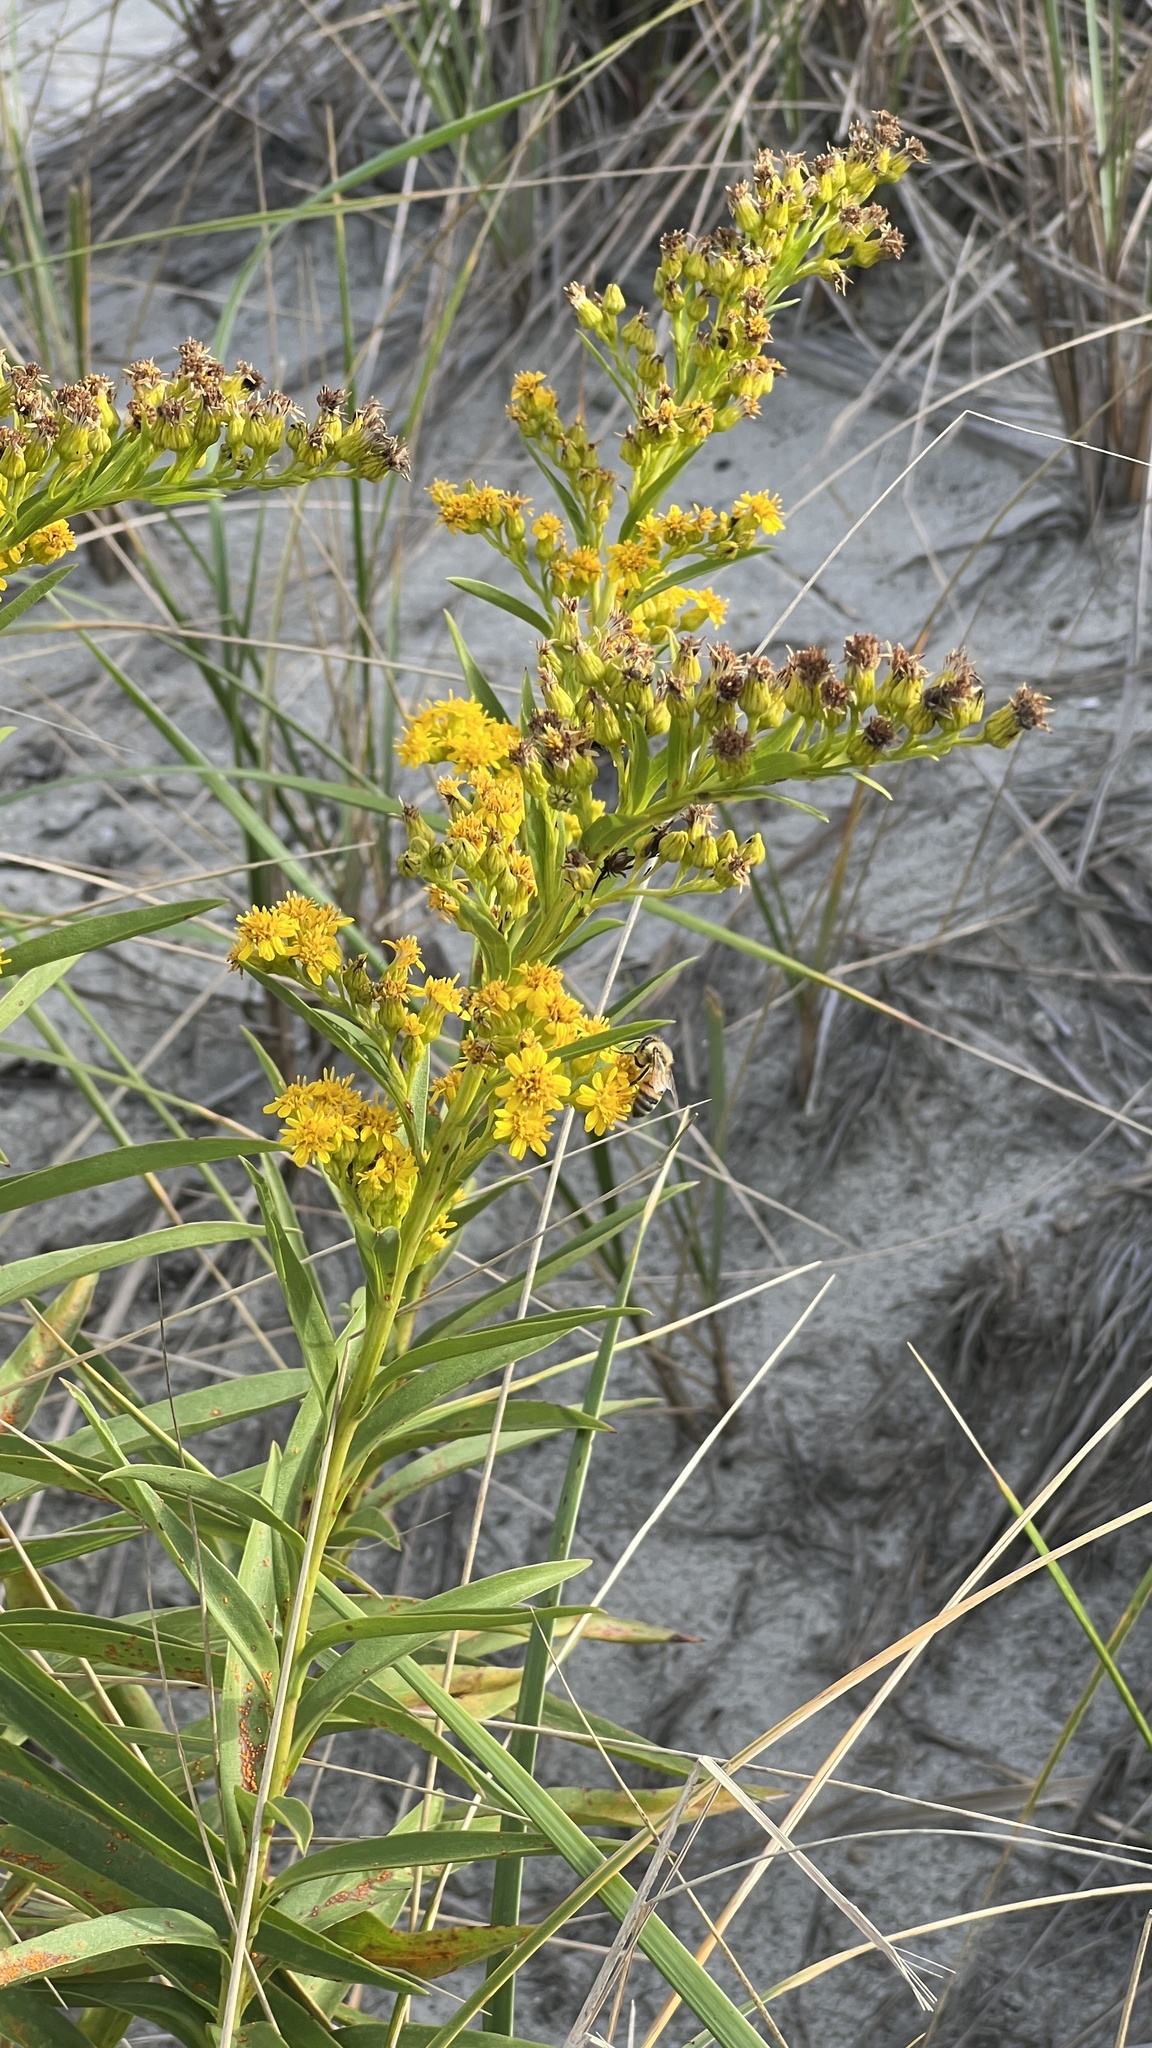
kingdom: Plantae
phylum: Tracheophyta
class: Magnoliopsida
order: Asterales
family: Asteraceae
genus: Solidago
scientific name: Solidago sempervirens
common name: Salt-marsh goldenrod
